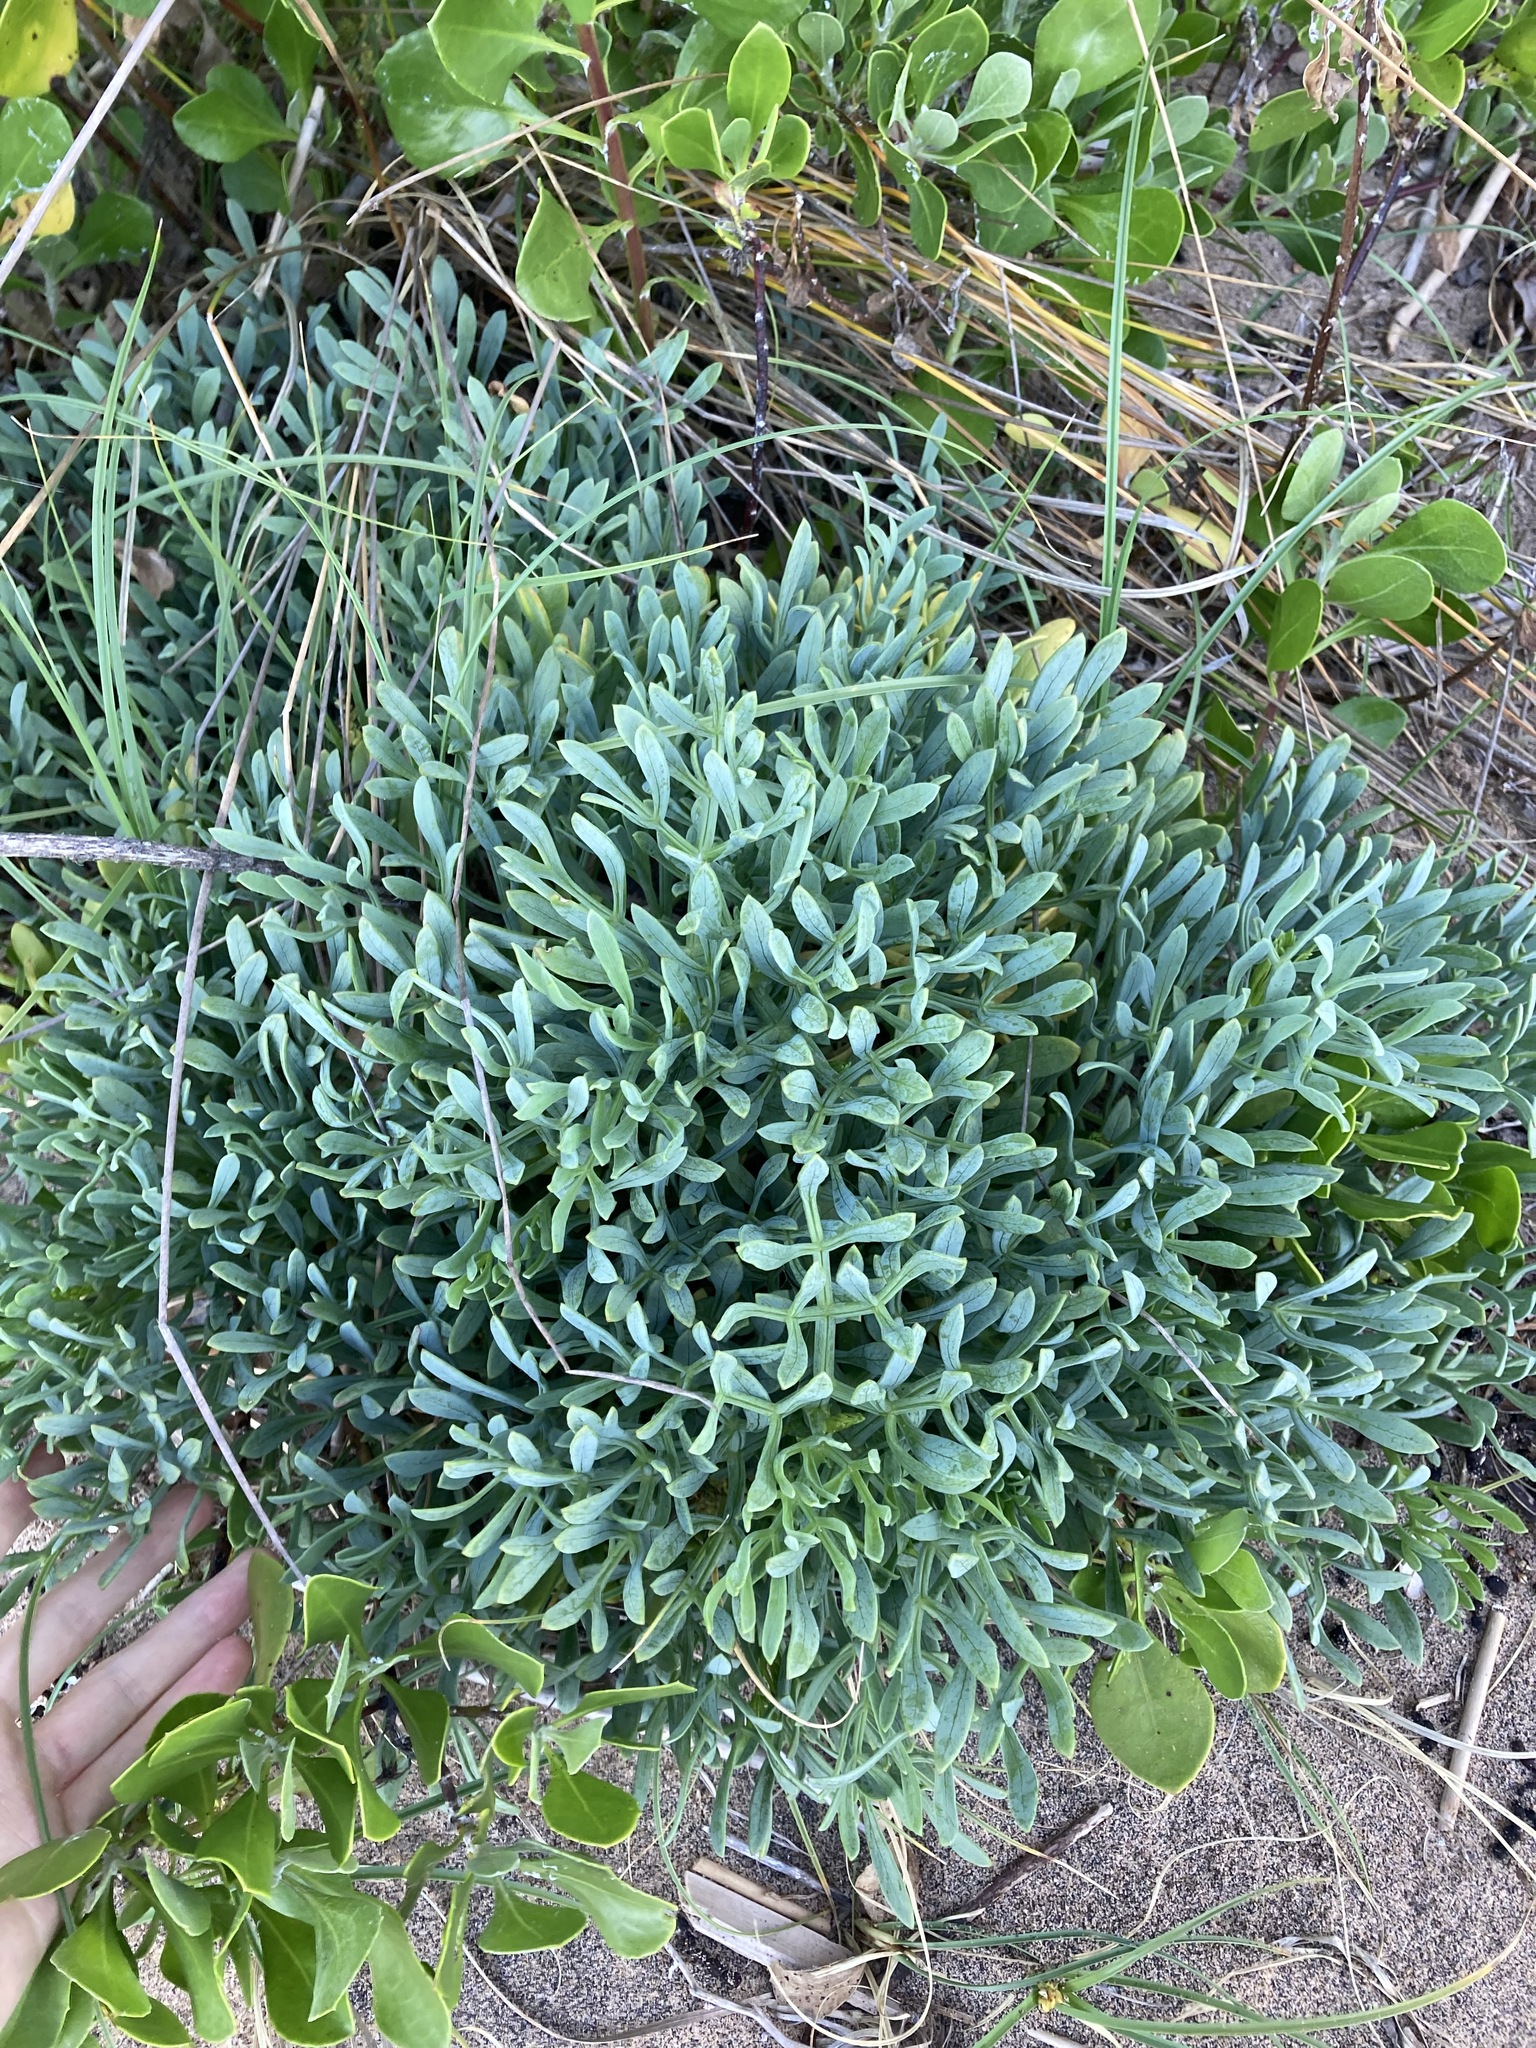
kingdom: Plantae
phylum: Tracheophyta
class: Magnoliopsida
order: Apiales
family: Apiaceae
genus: Crithmum
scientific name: Crithmum maritimum
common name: Rock samphire
